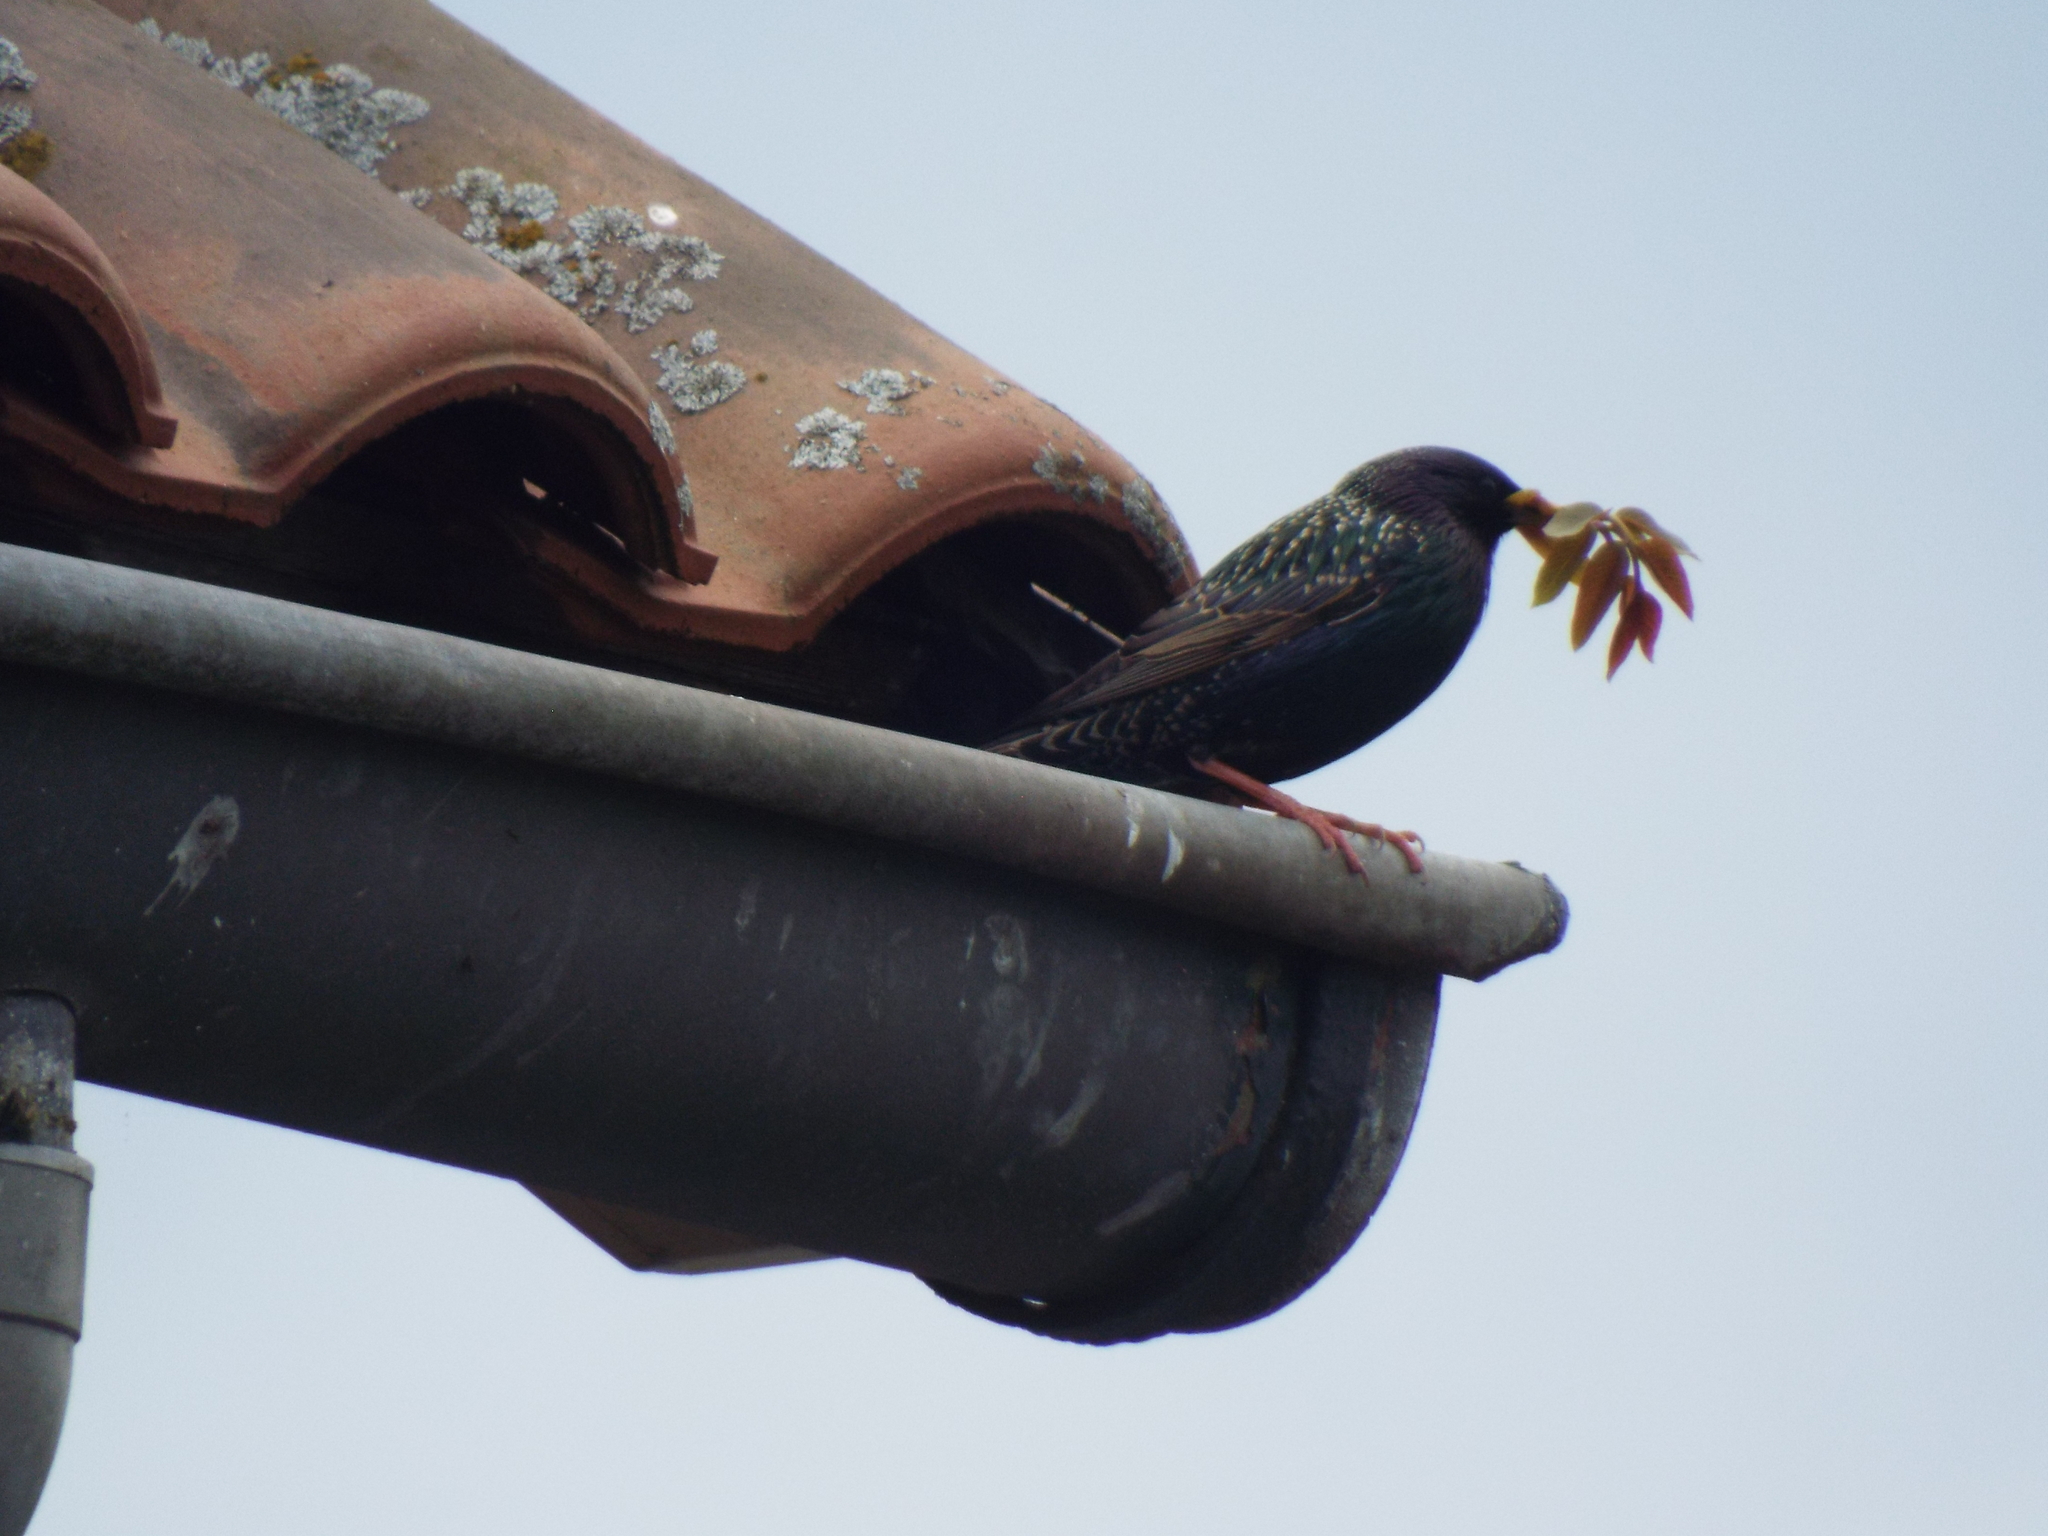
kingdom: Animalia
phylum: Chordata
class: Aves
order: Passeriformes
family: Sturnidae
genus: Sturnus
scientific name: Sturnus vulgaris
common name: Common starling
